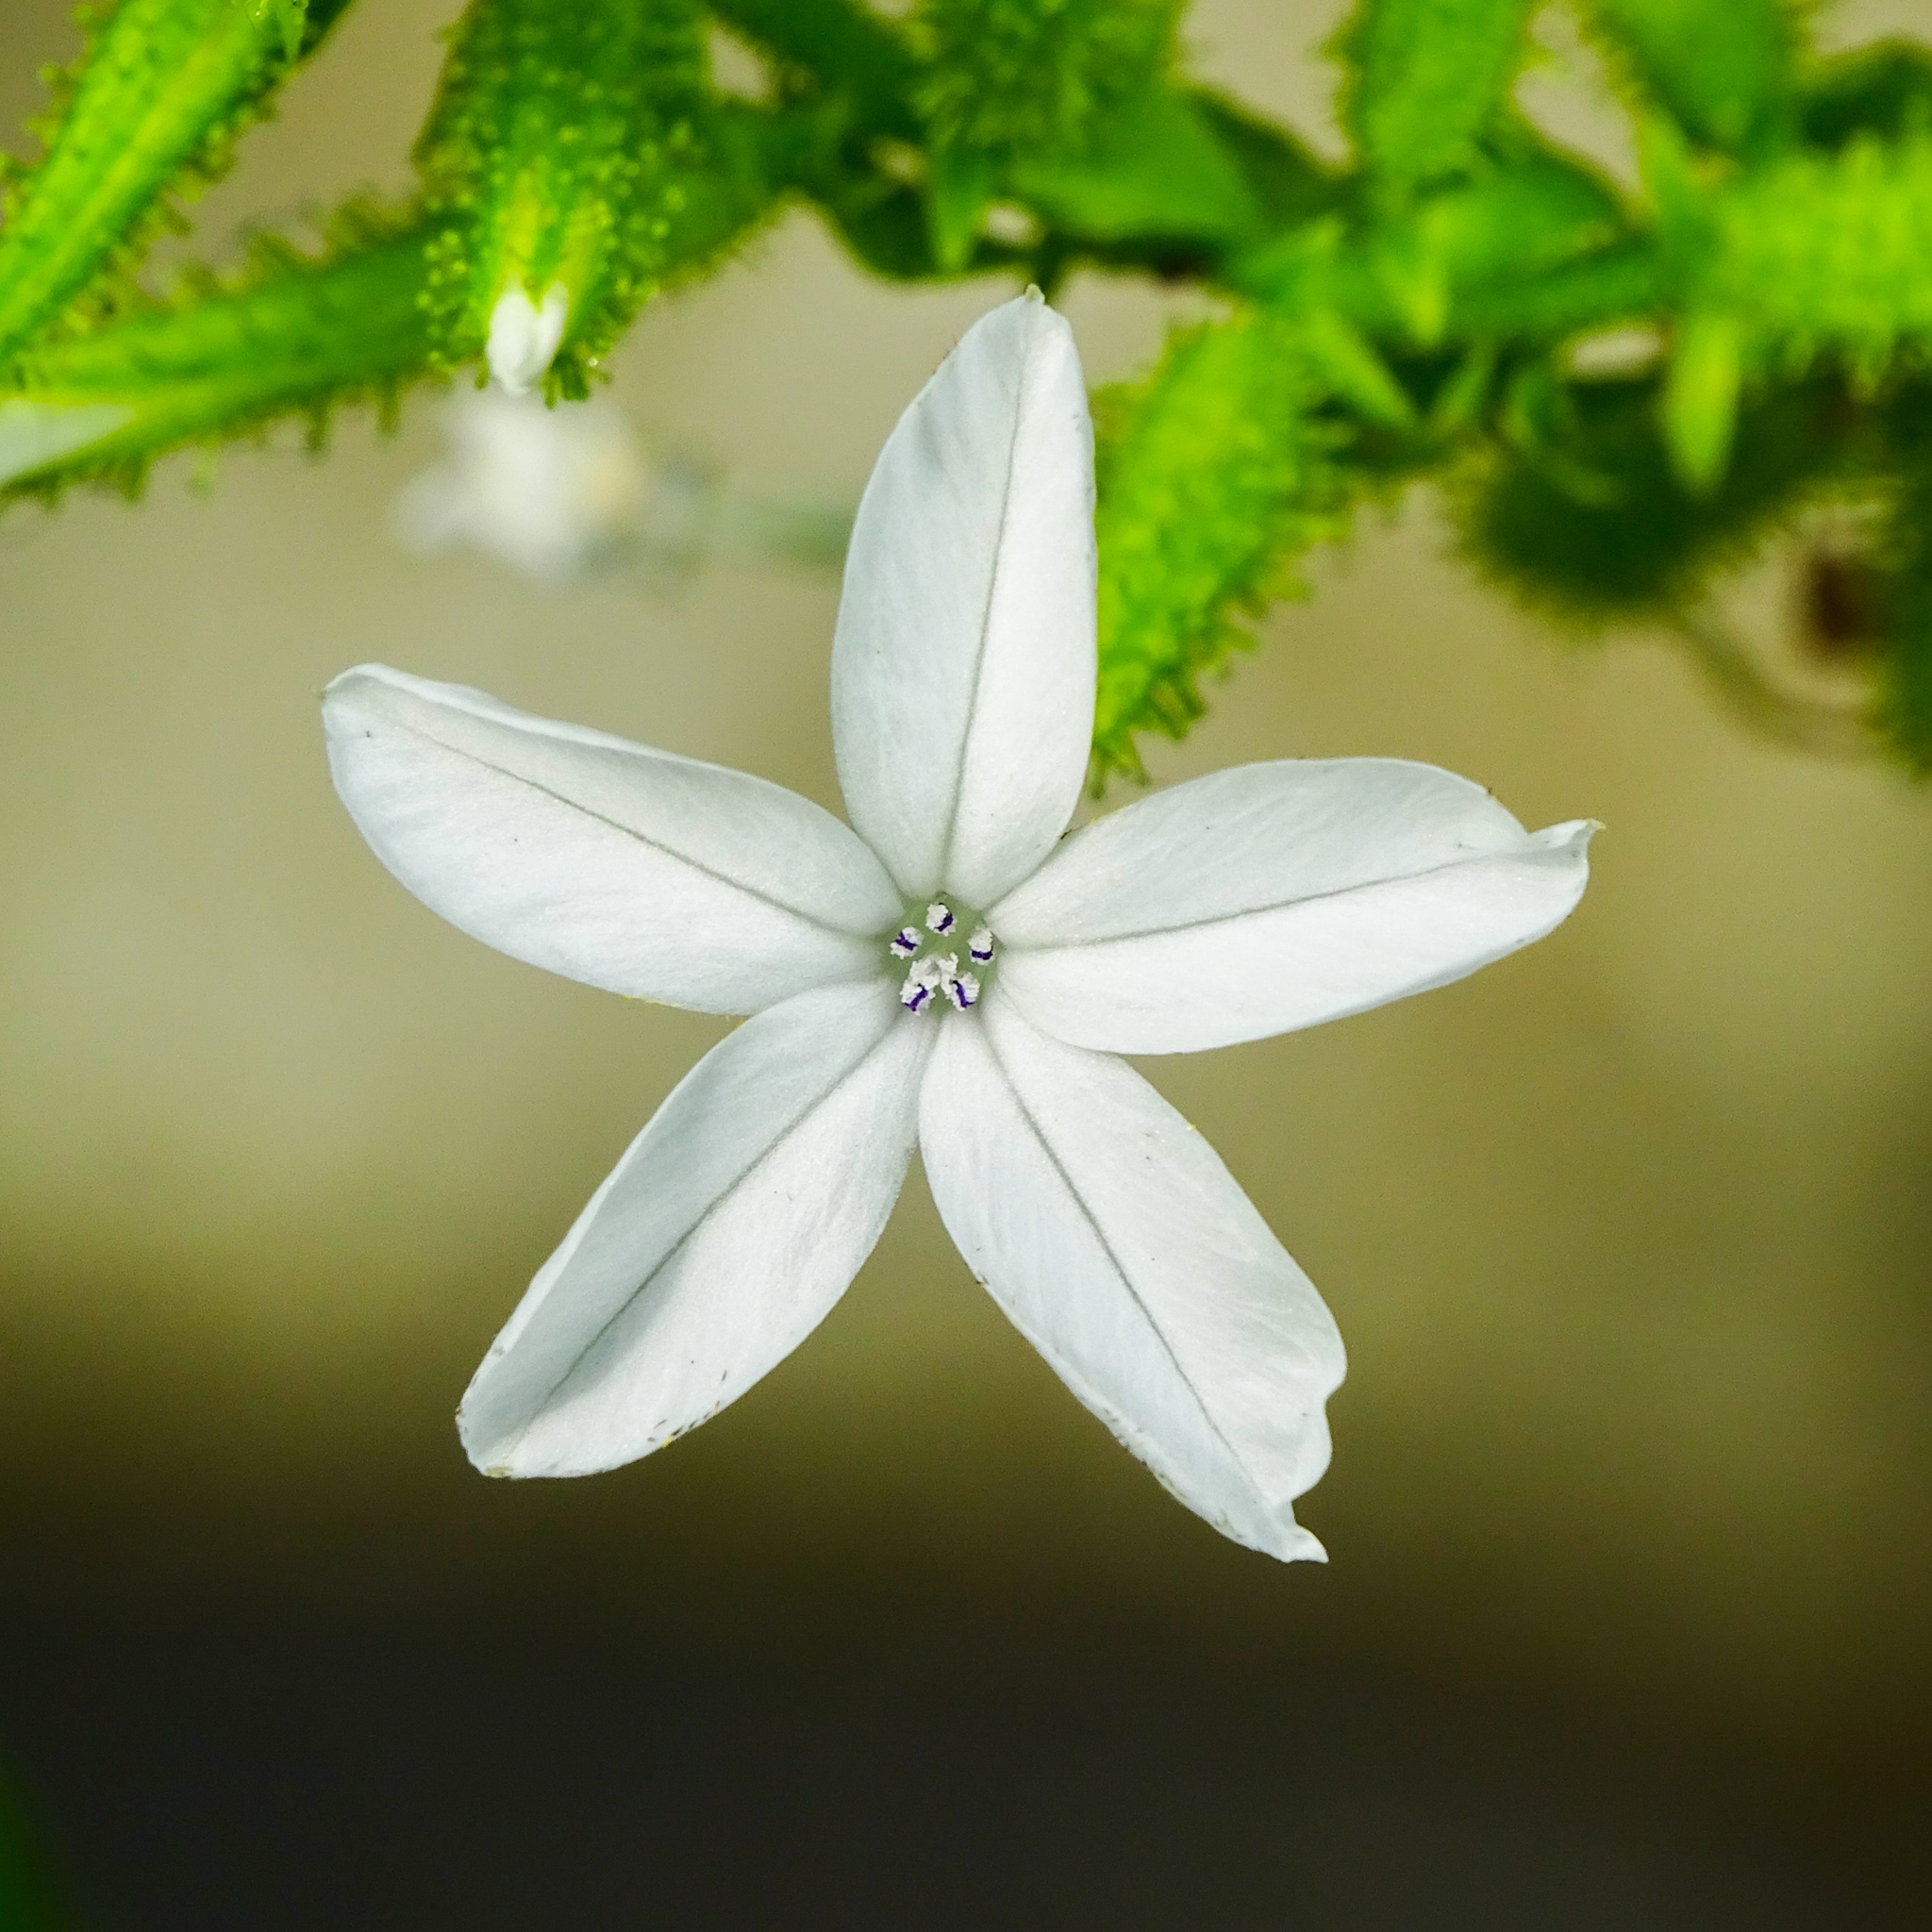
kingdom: Plantae
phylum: Tracheophyta
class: Magnoliopsida
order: Caryophyllales
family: Plumbaginaceae
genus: Plumbago
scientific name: Plumbago zeylanica
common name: Doctorbush
